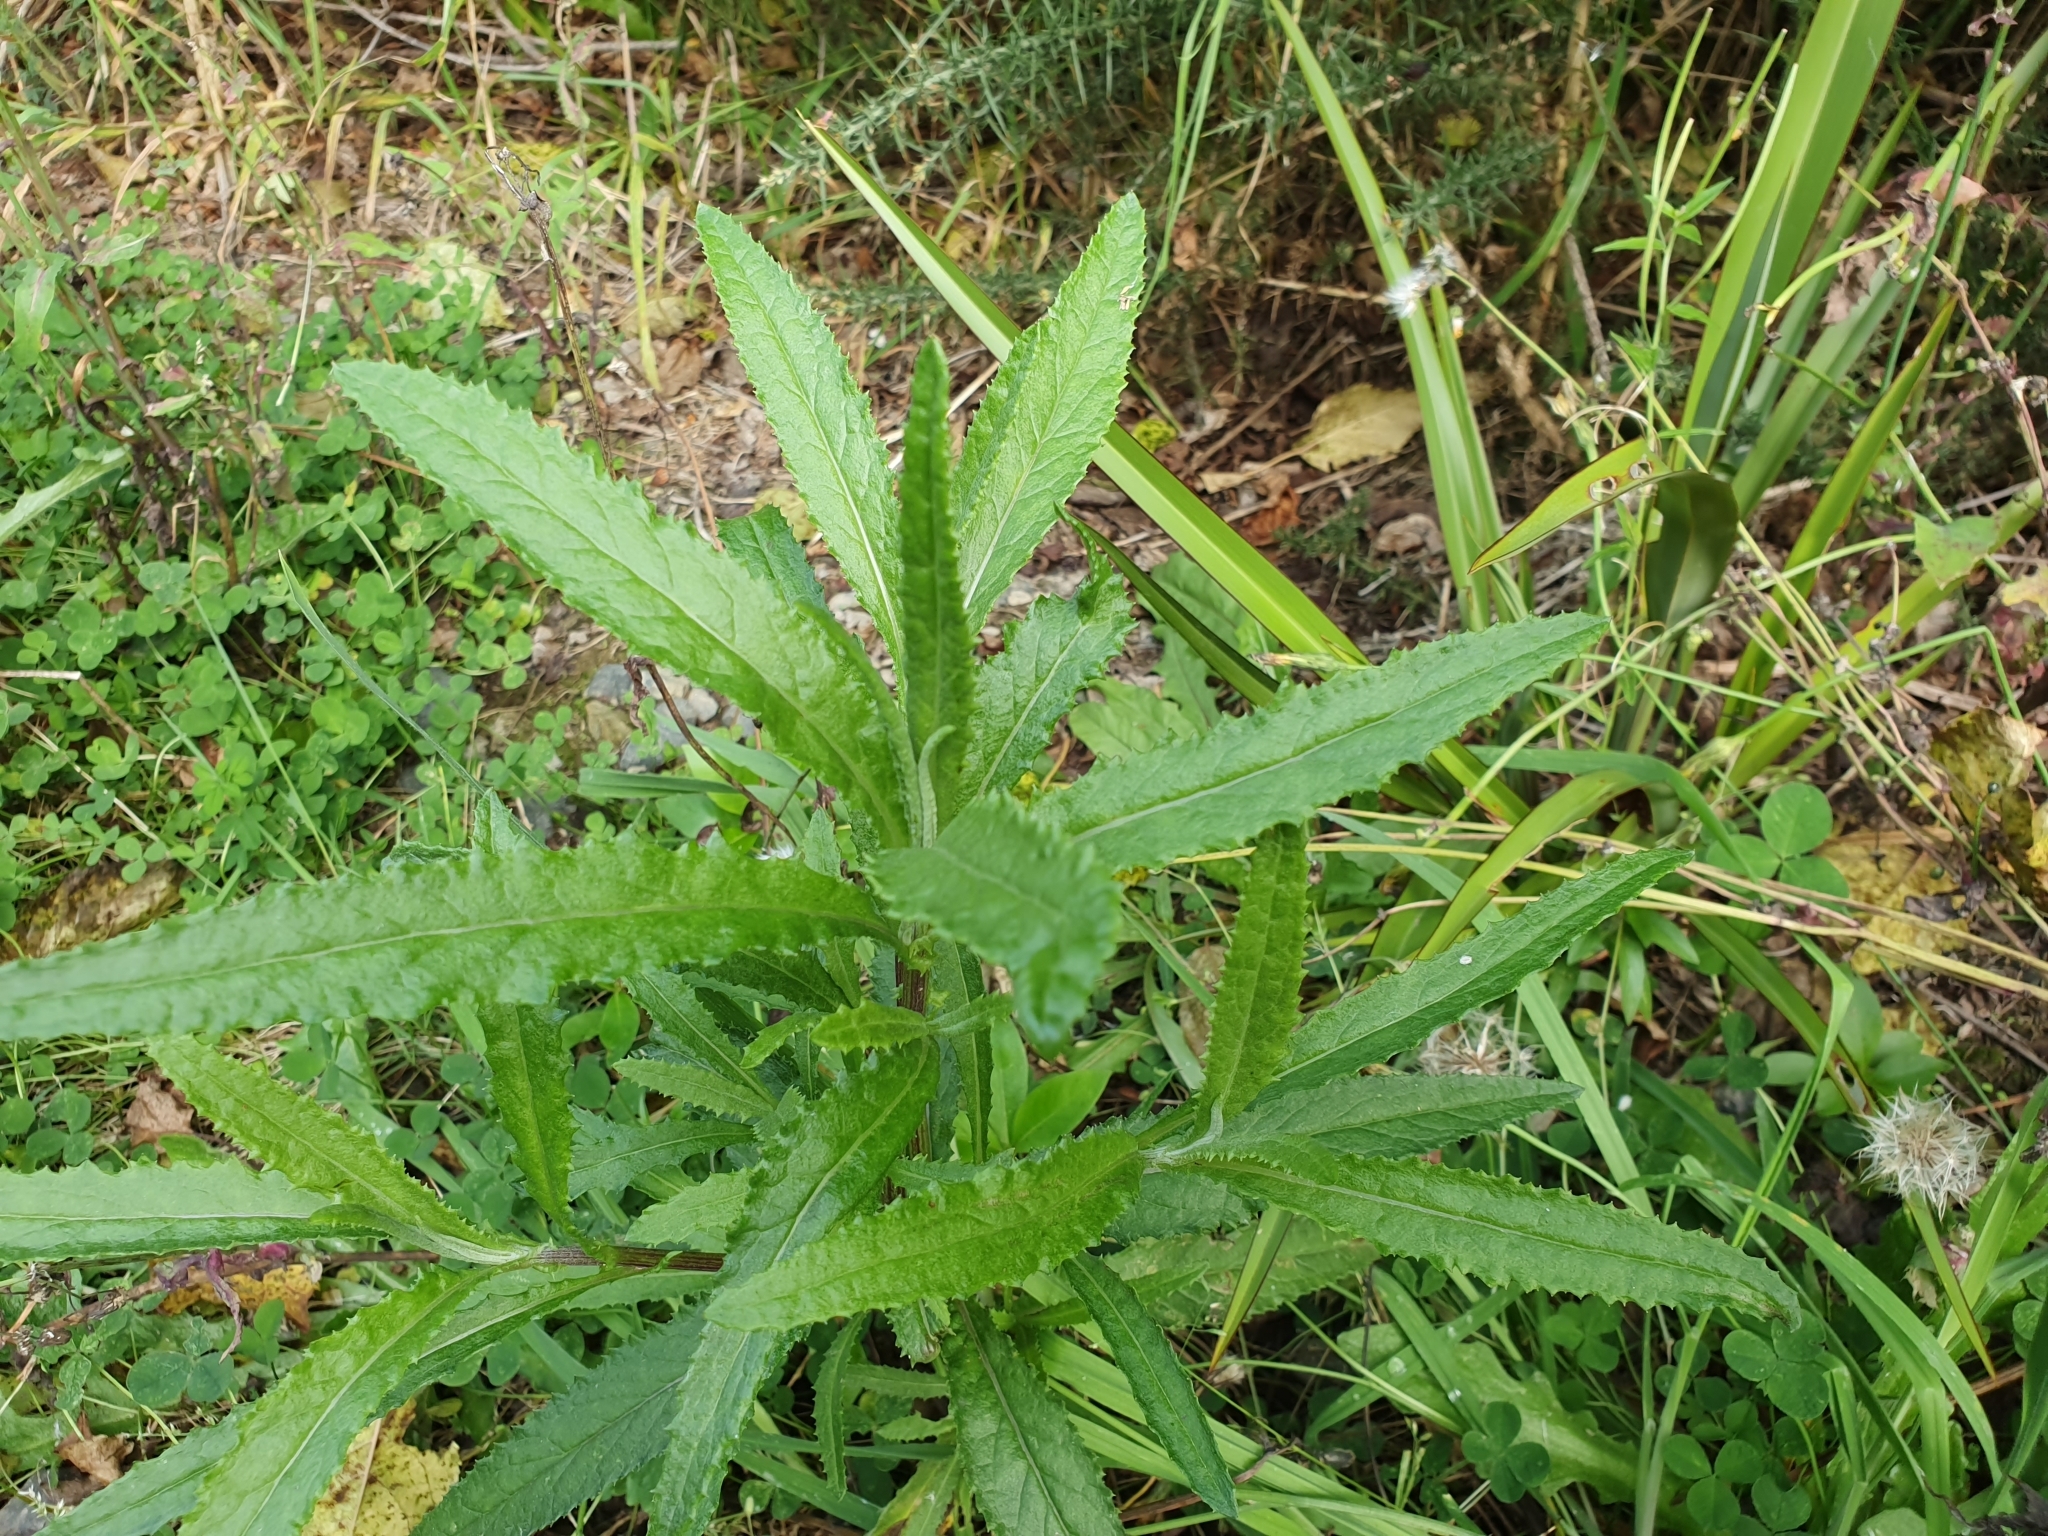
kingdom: Plantae
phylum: Tracheophyta
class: Magnoliopsida
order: Asterales
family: Asteraceae
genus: Senecio
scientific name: Senecio minimus
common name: Toothed fireweed
